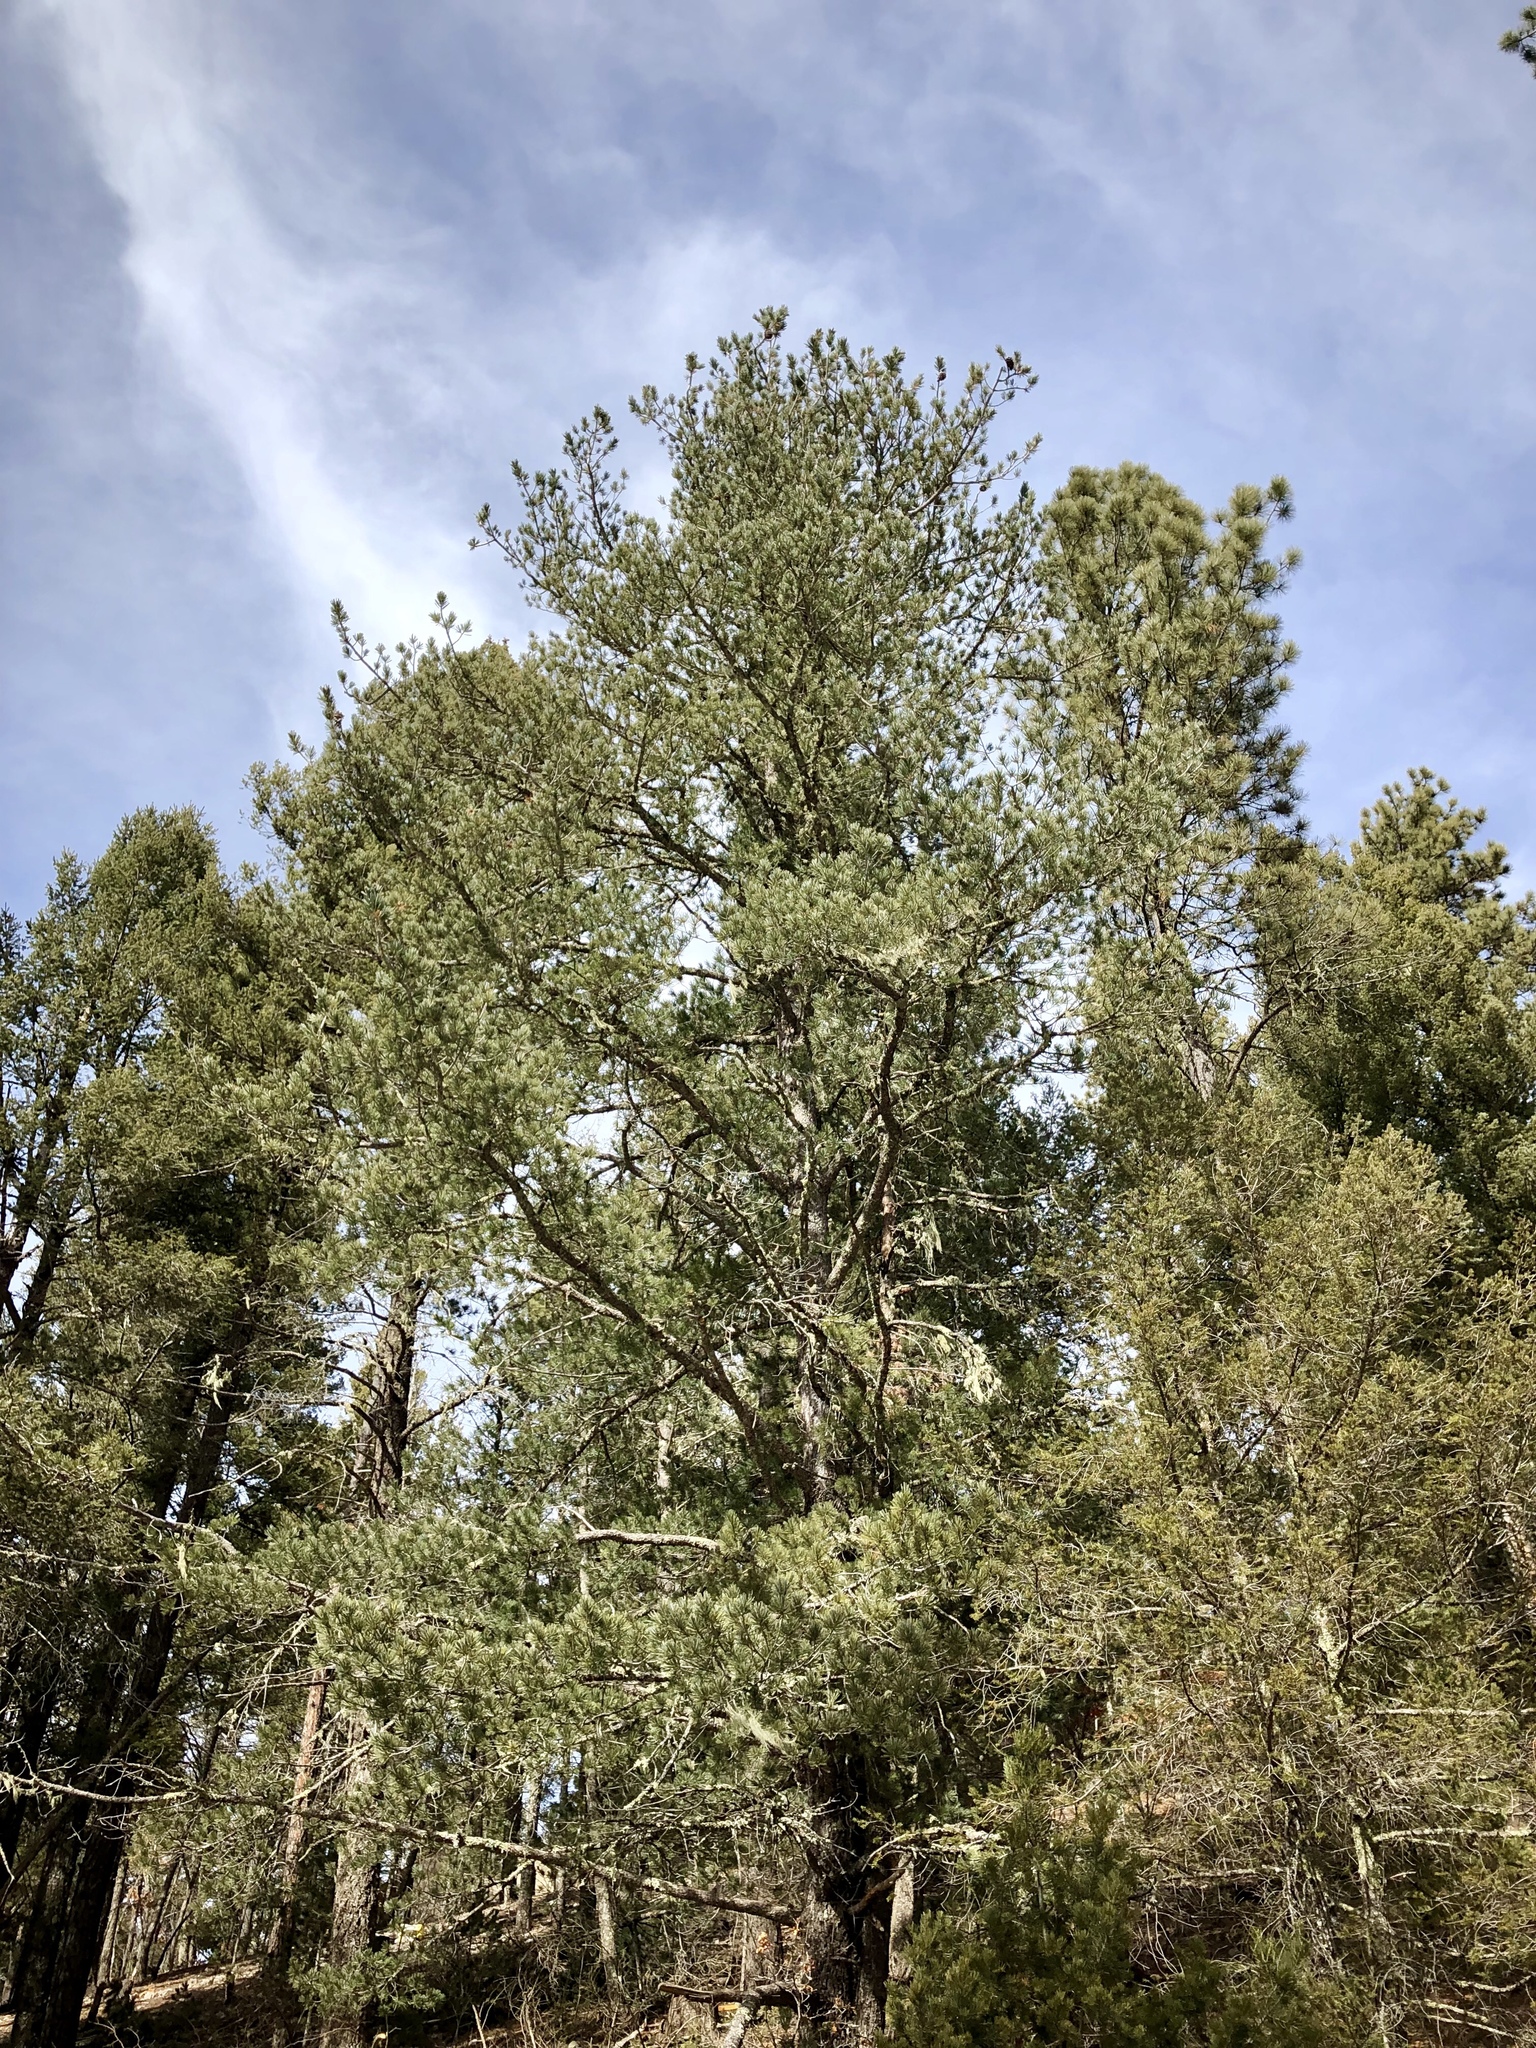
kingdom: Plantae
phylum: Tracheophyta
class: Pinopsida
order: Pinales
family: Pinaceae
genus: Pinus
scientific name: Pinus strobiformis
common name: Southwestern white pine
